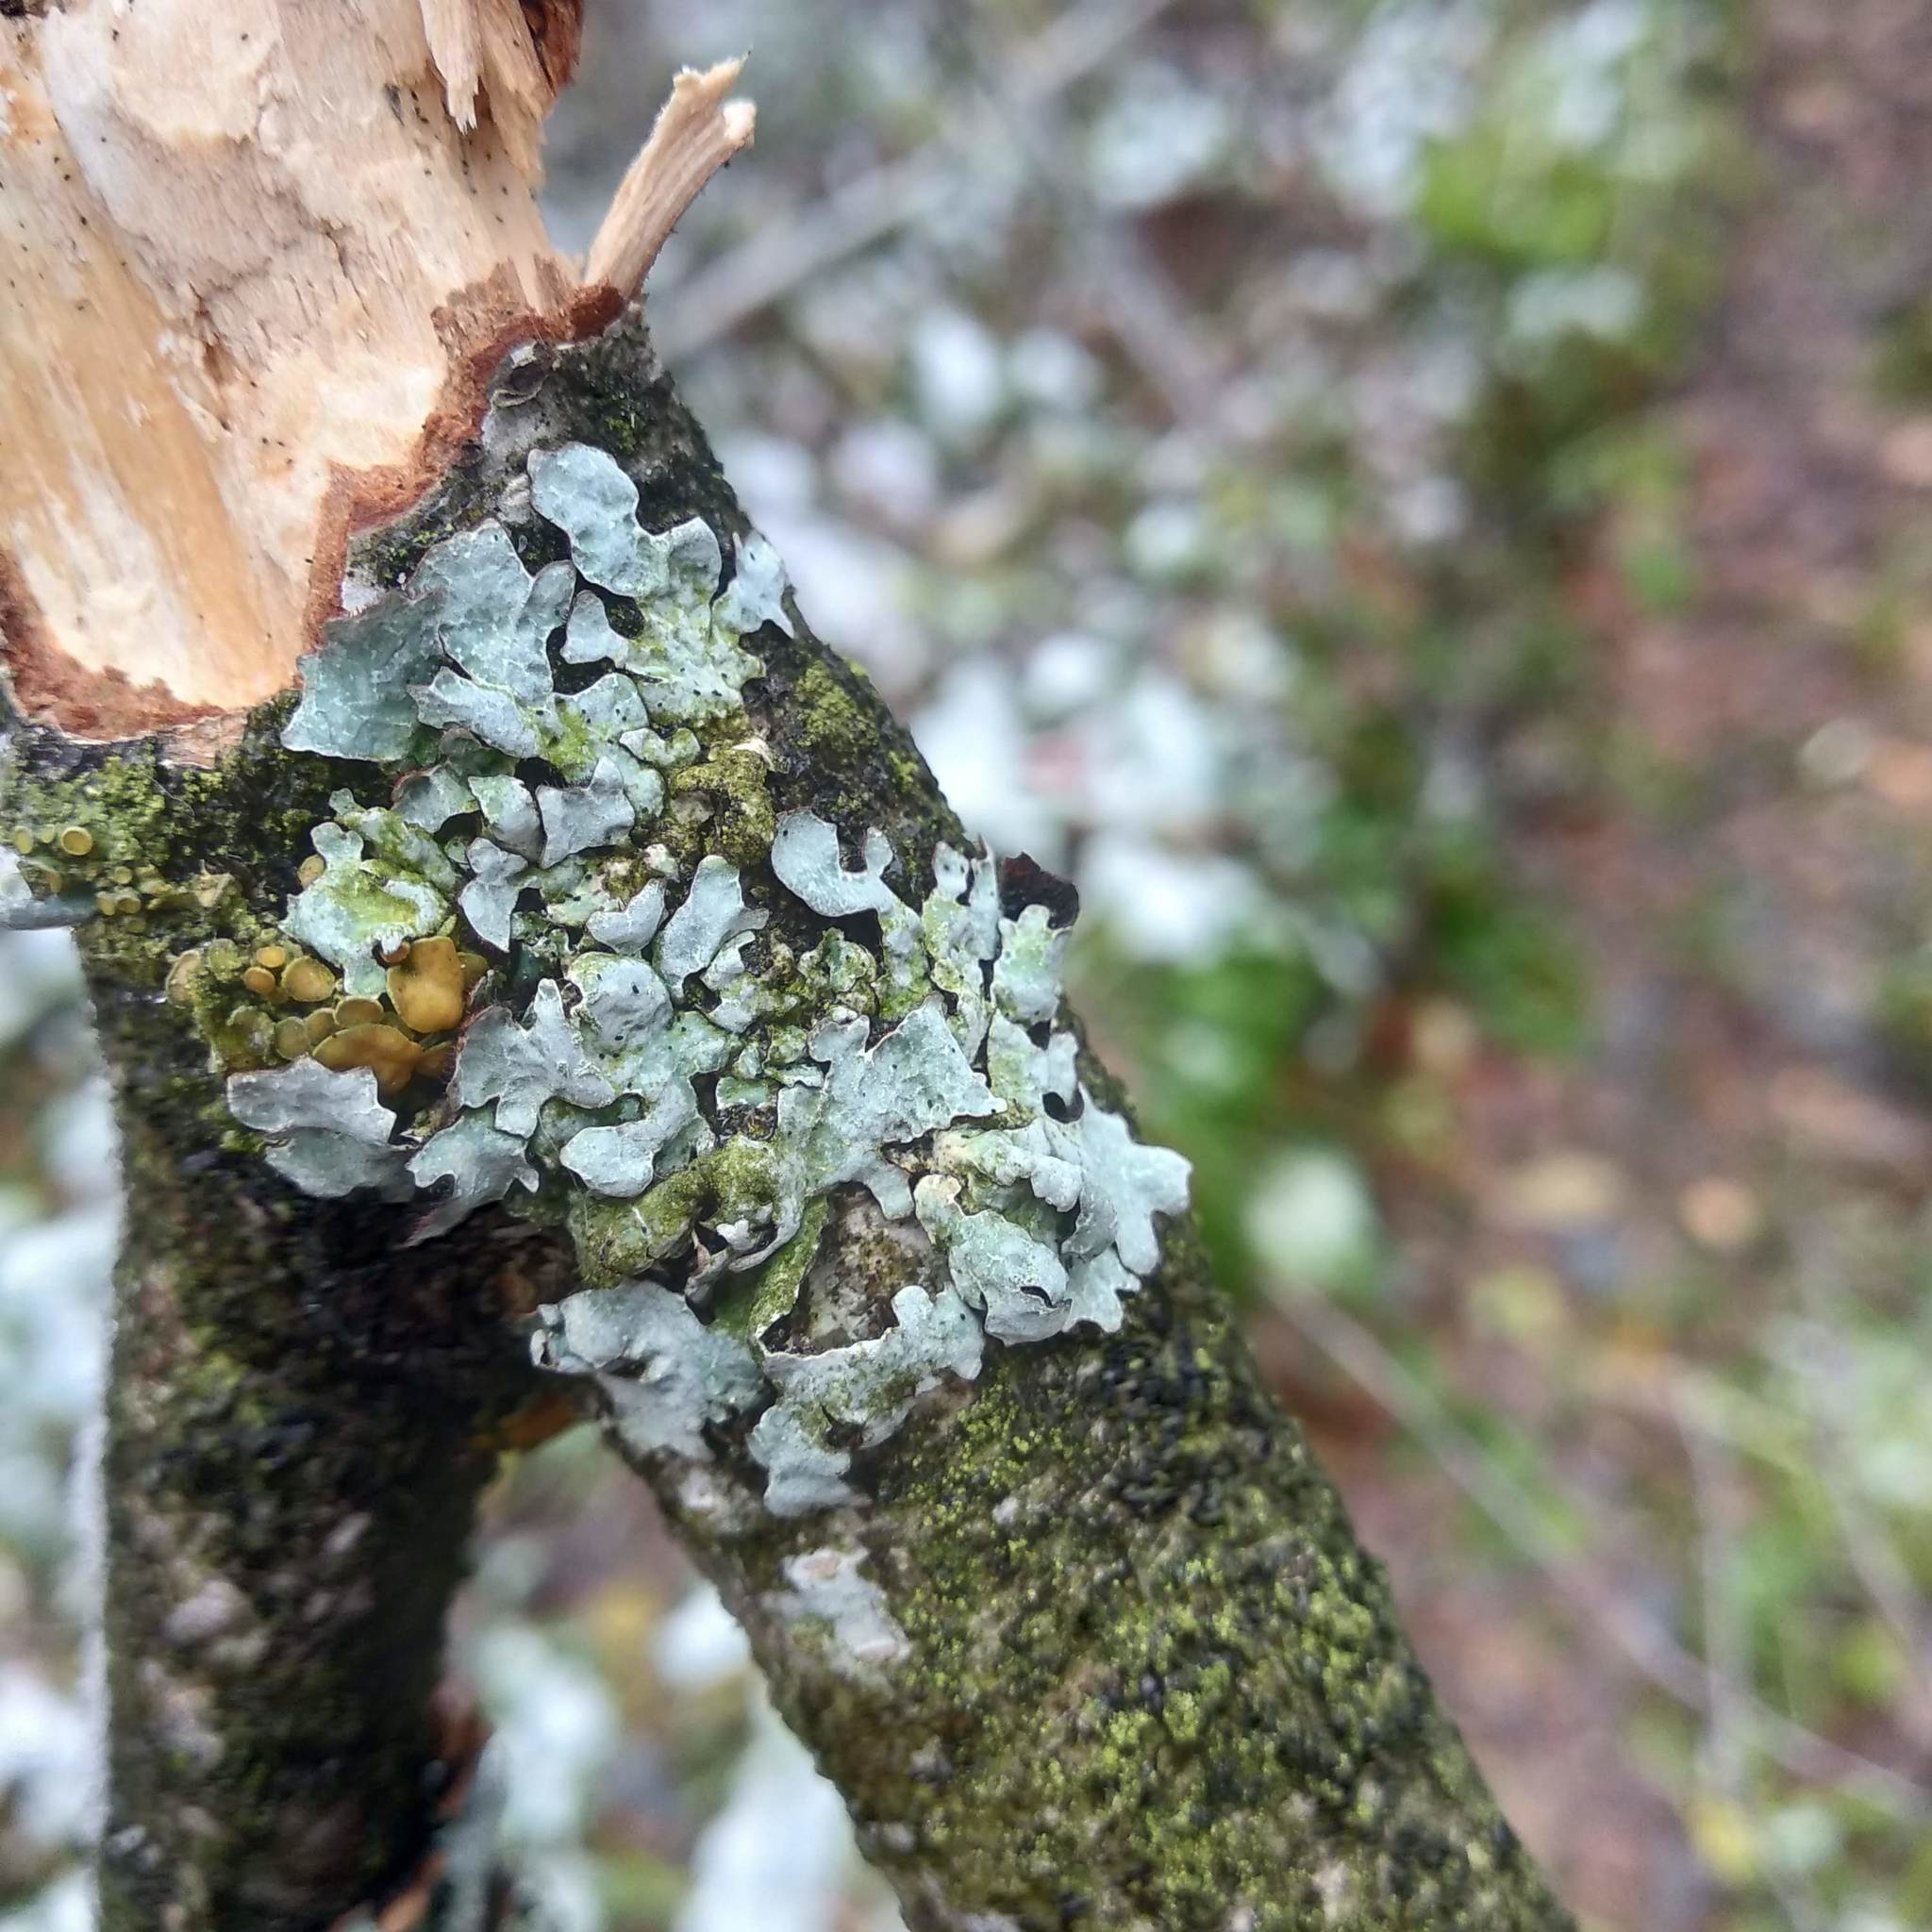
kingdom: Fungi
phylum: Ascomycota
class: Lecanoromycetes
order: Lecanorales
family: Parmeliaceae
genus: Parmelia
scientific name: Parmelia sulcata
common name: Netted shield lichen
